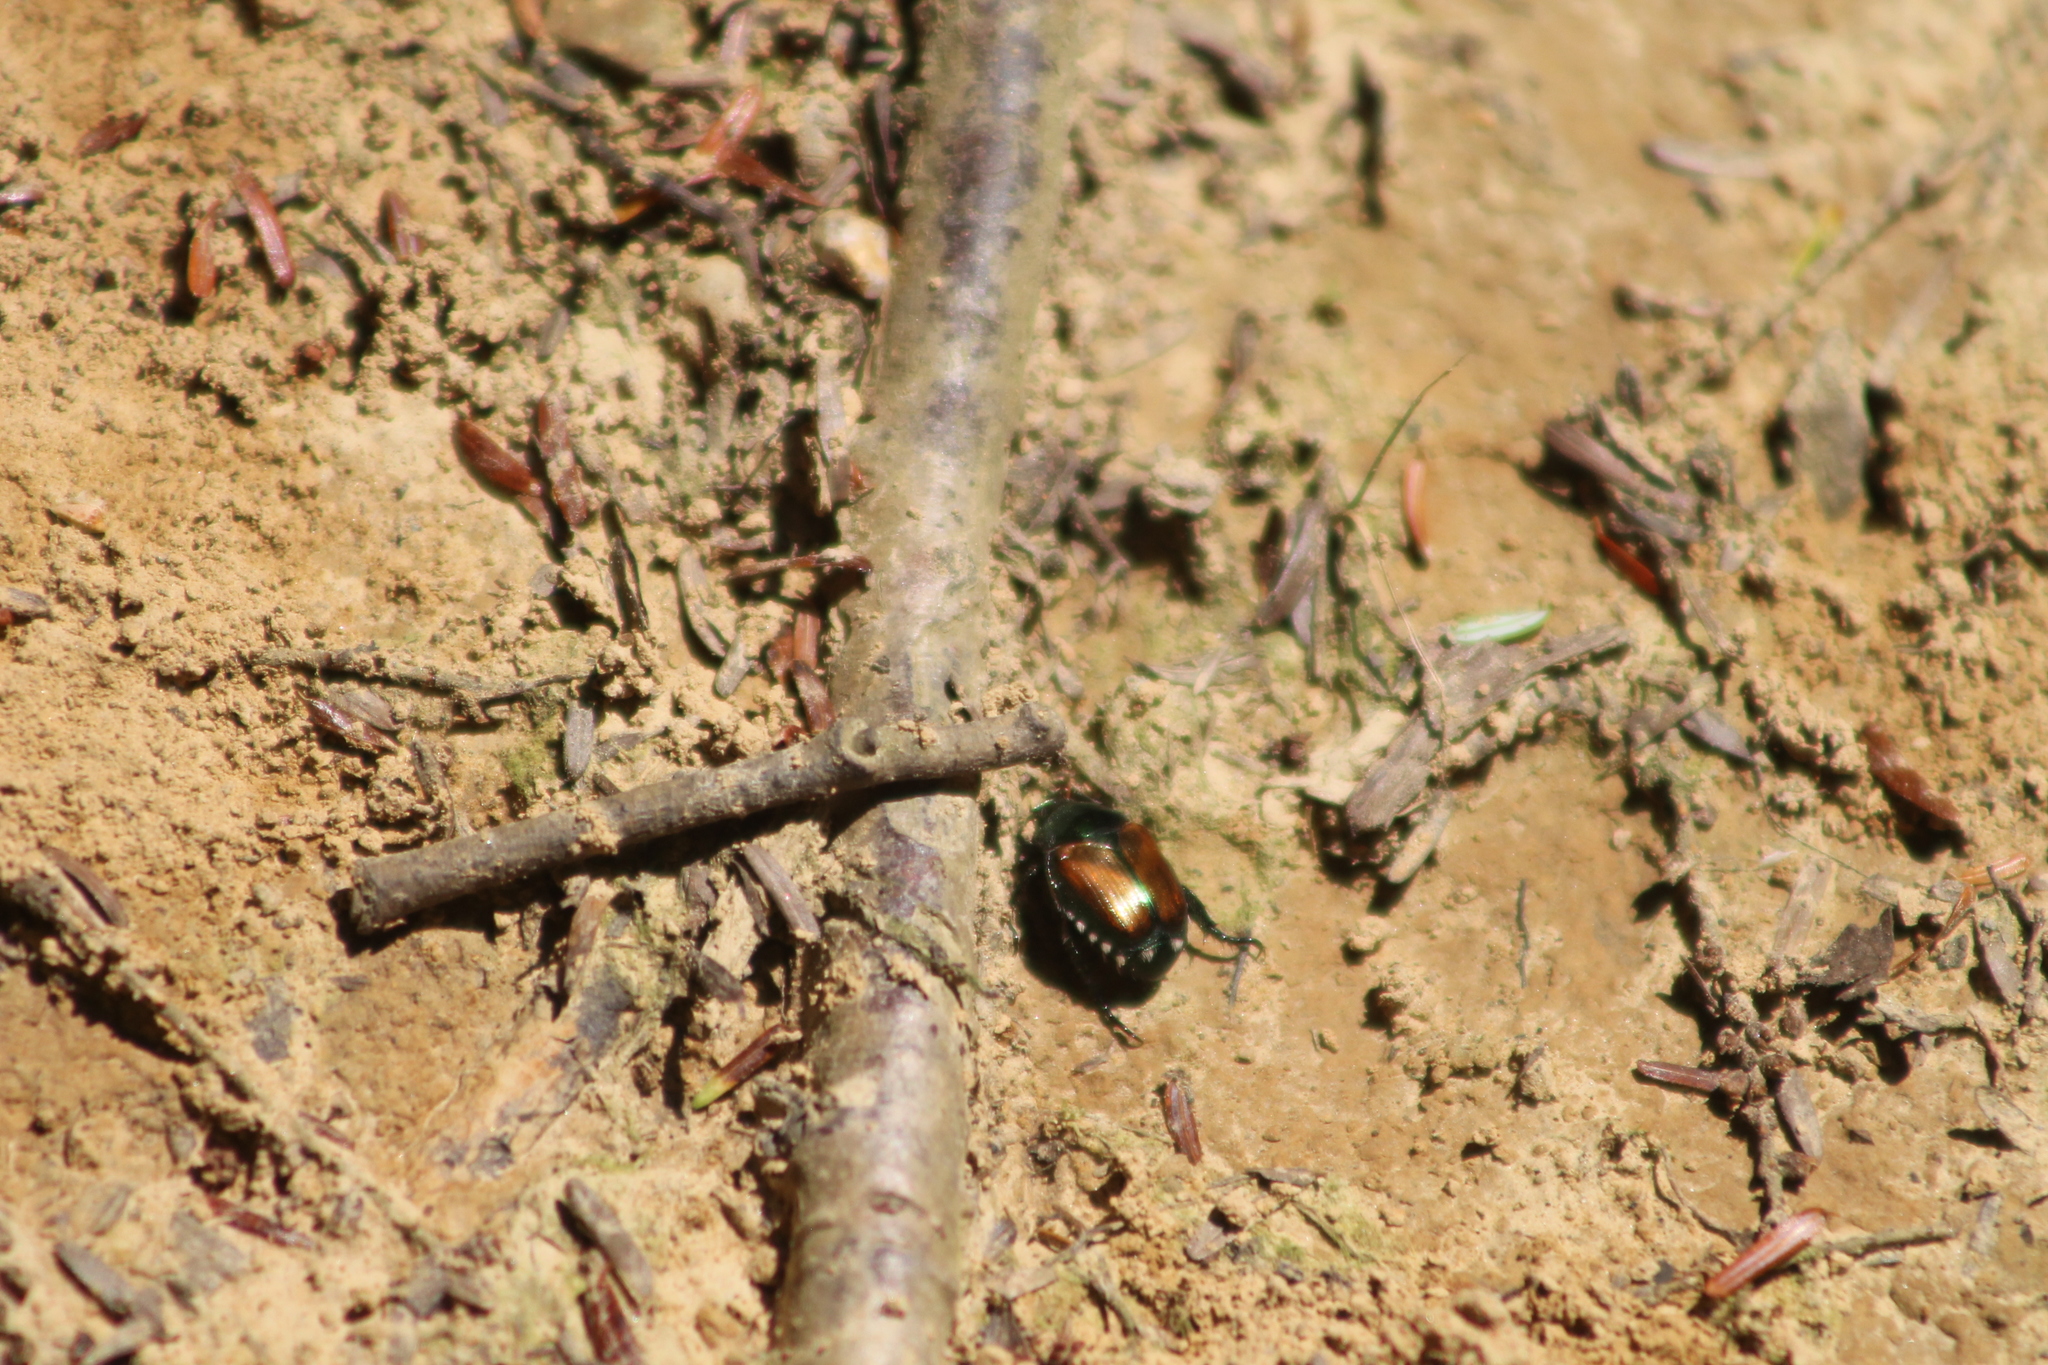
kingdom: Animalia
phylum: Arthropoda
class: Insecta
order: Coleoptera
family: Scarabaeidae
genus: Popillia
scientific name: Popillia japonica
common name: Japanese beetle
